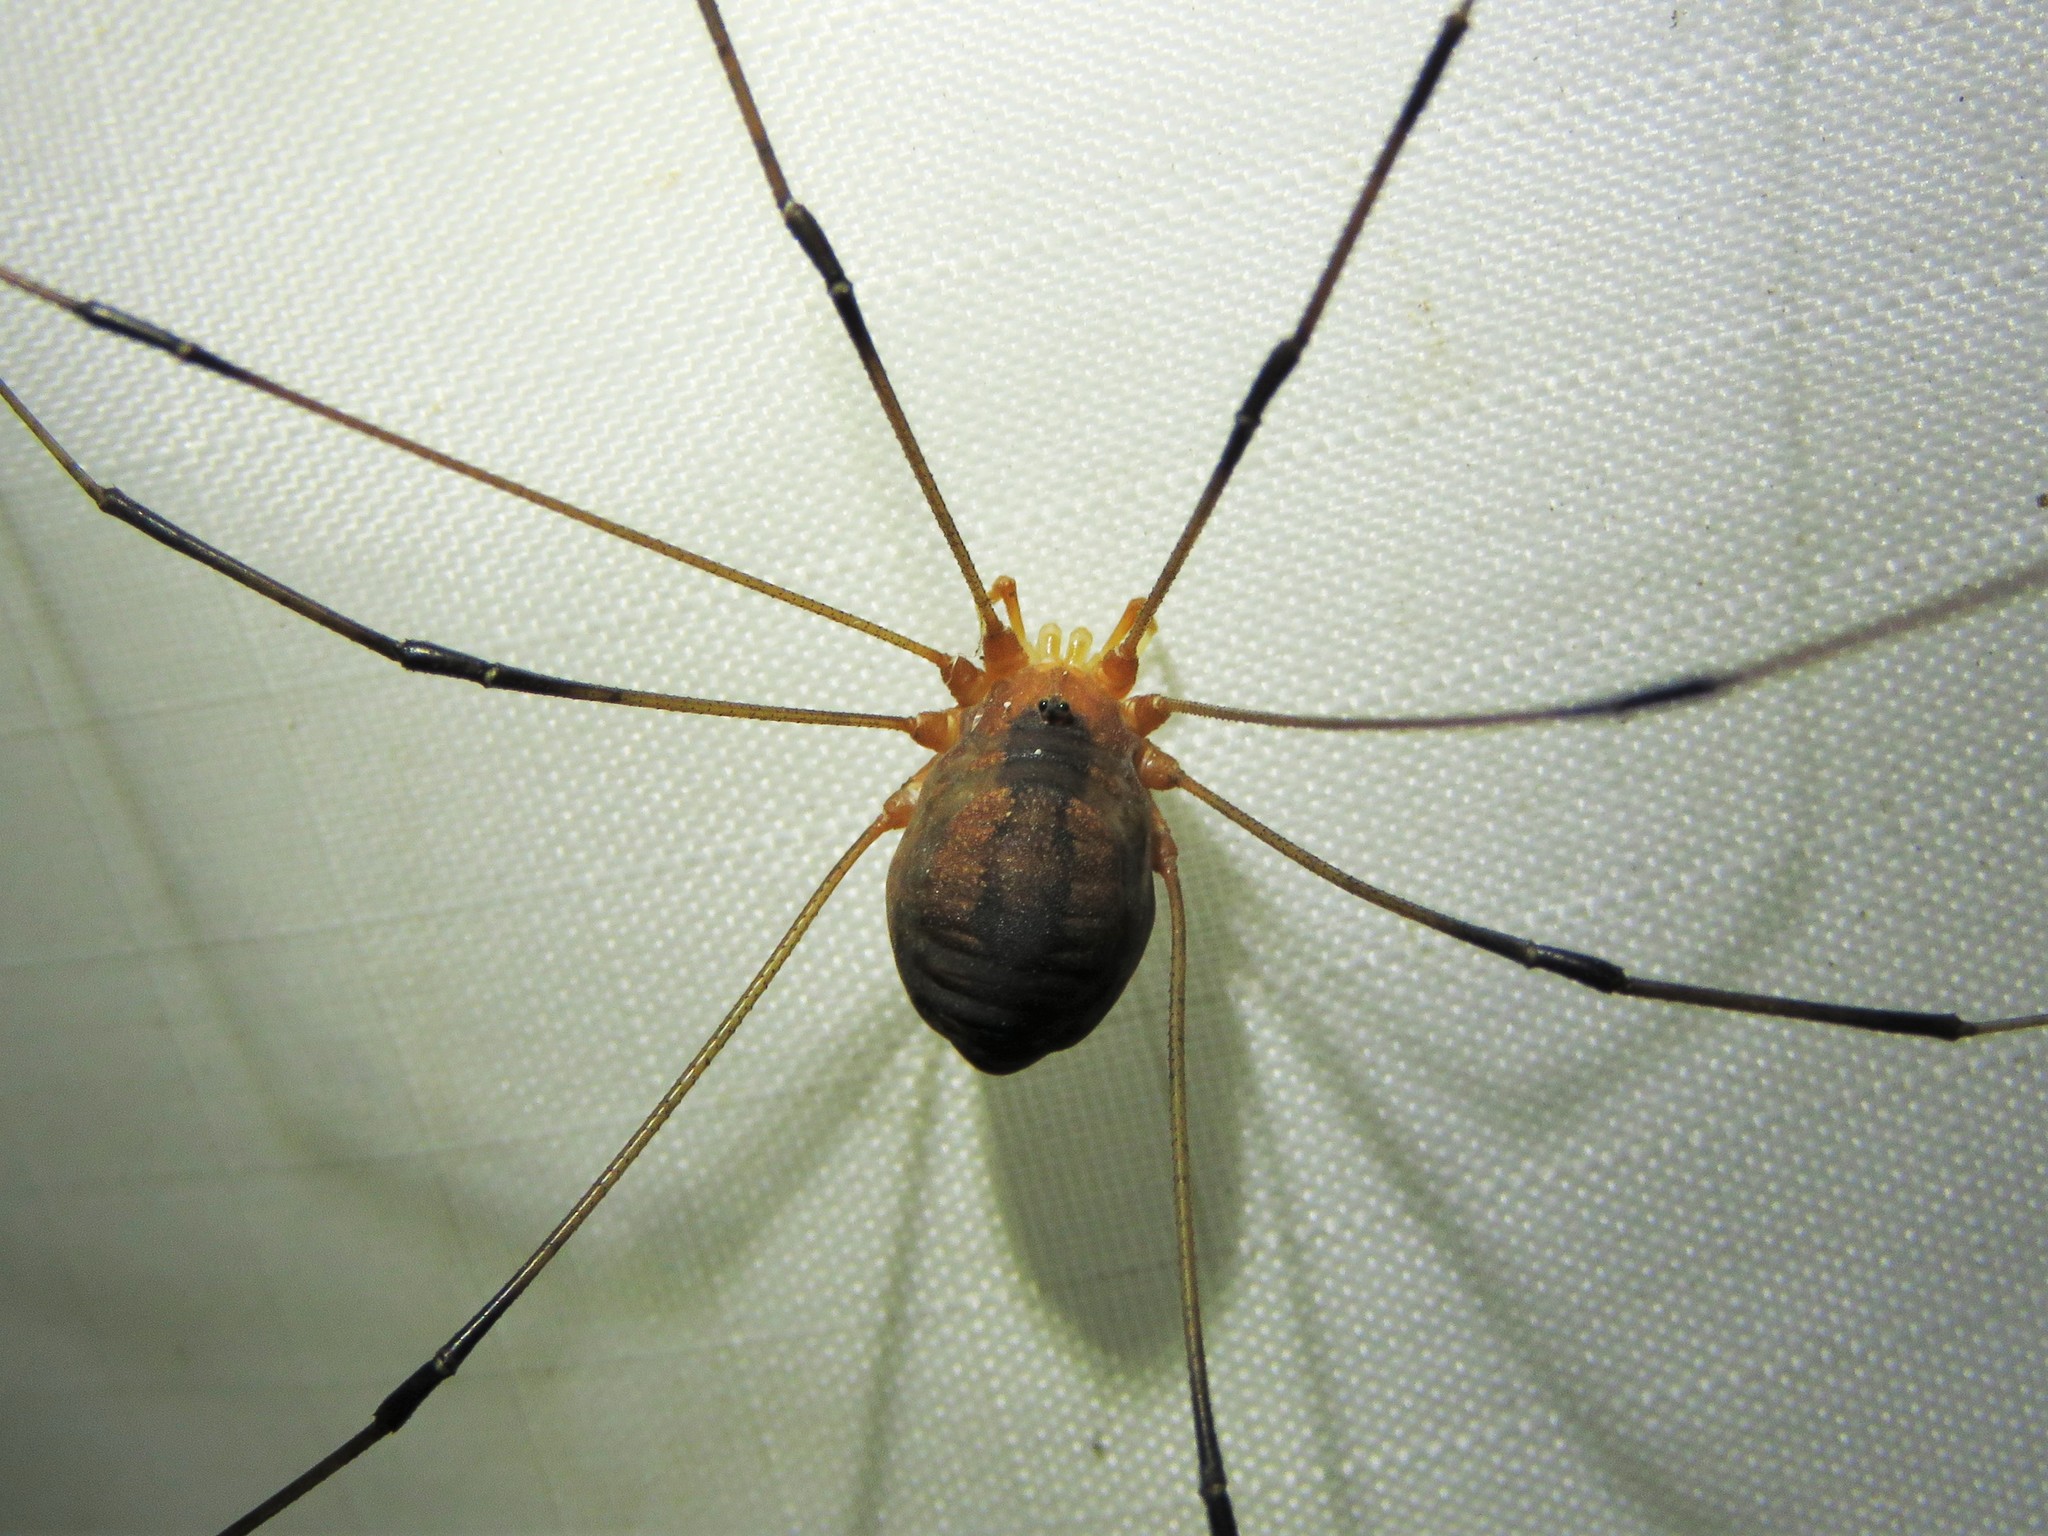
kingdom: Animalia
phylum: Arthropoda
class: Arachnida
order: Opiliones
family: Sclerosomatidae
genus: Leiobunum
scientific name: Leiobunum vittatum
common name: Eastern harvestman
